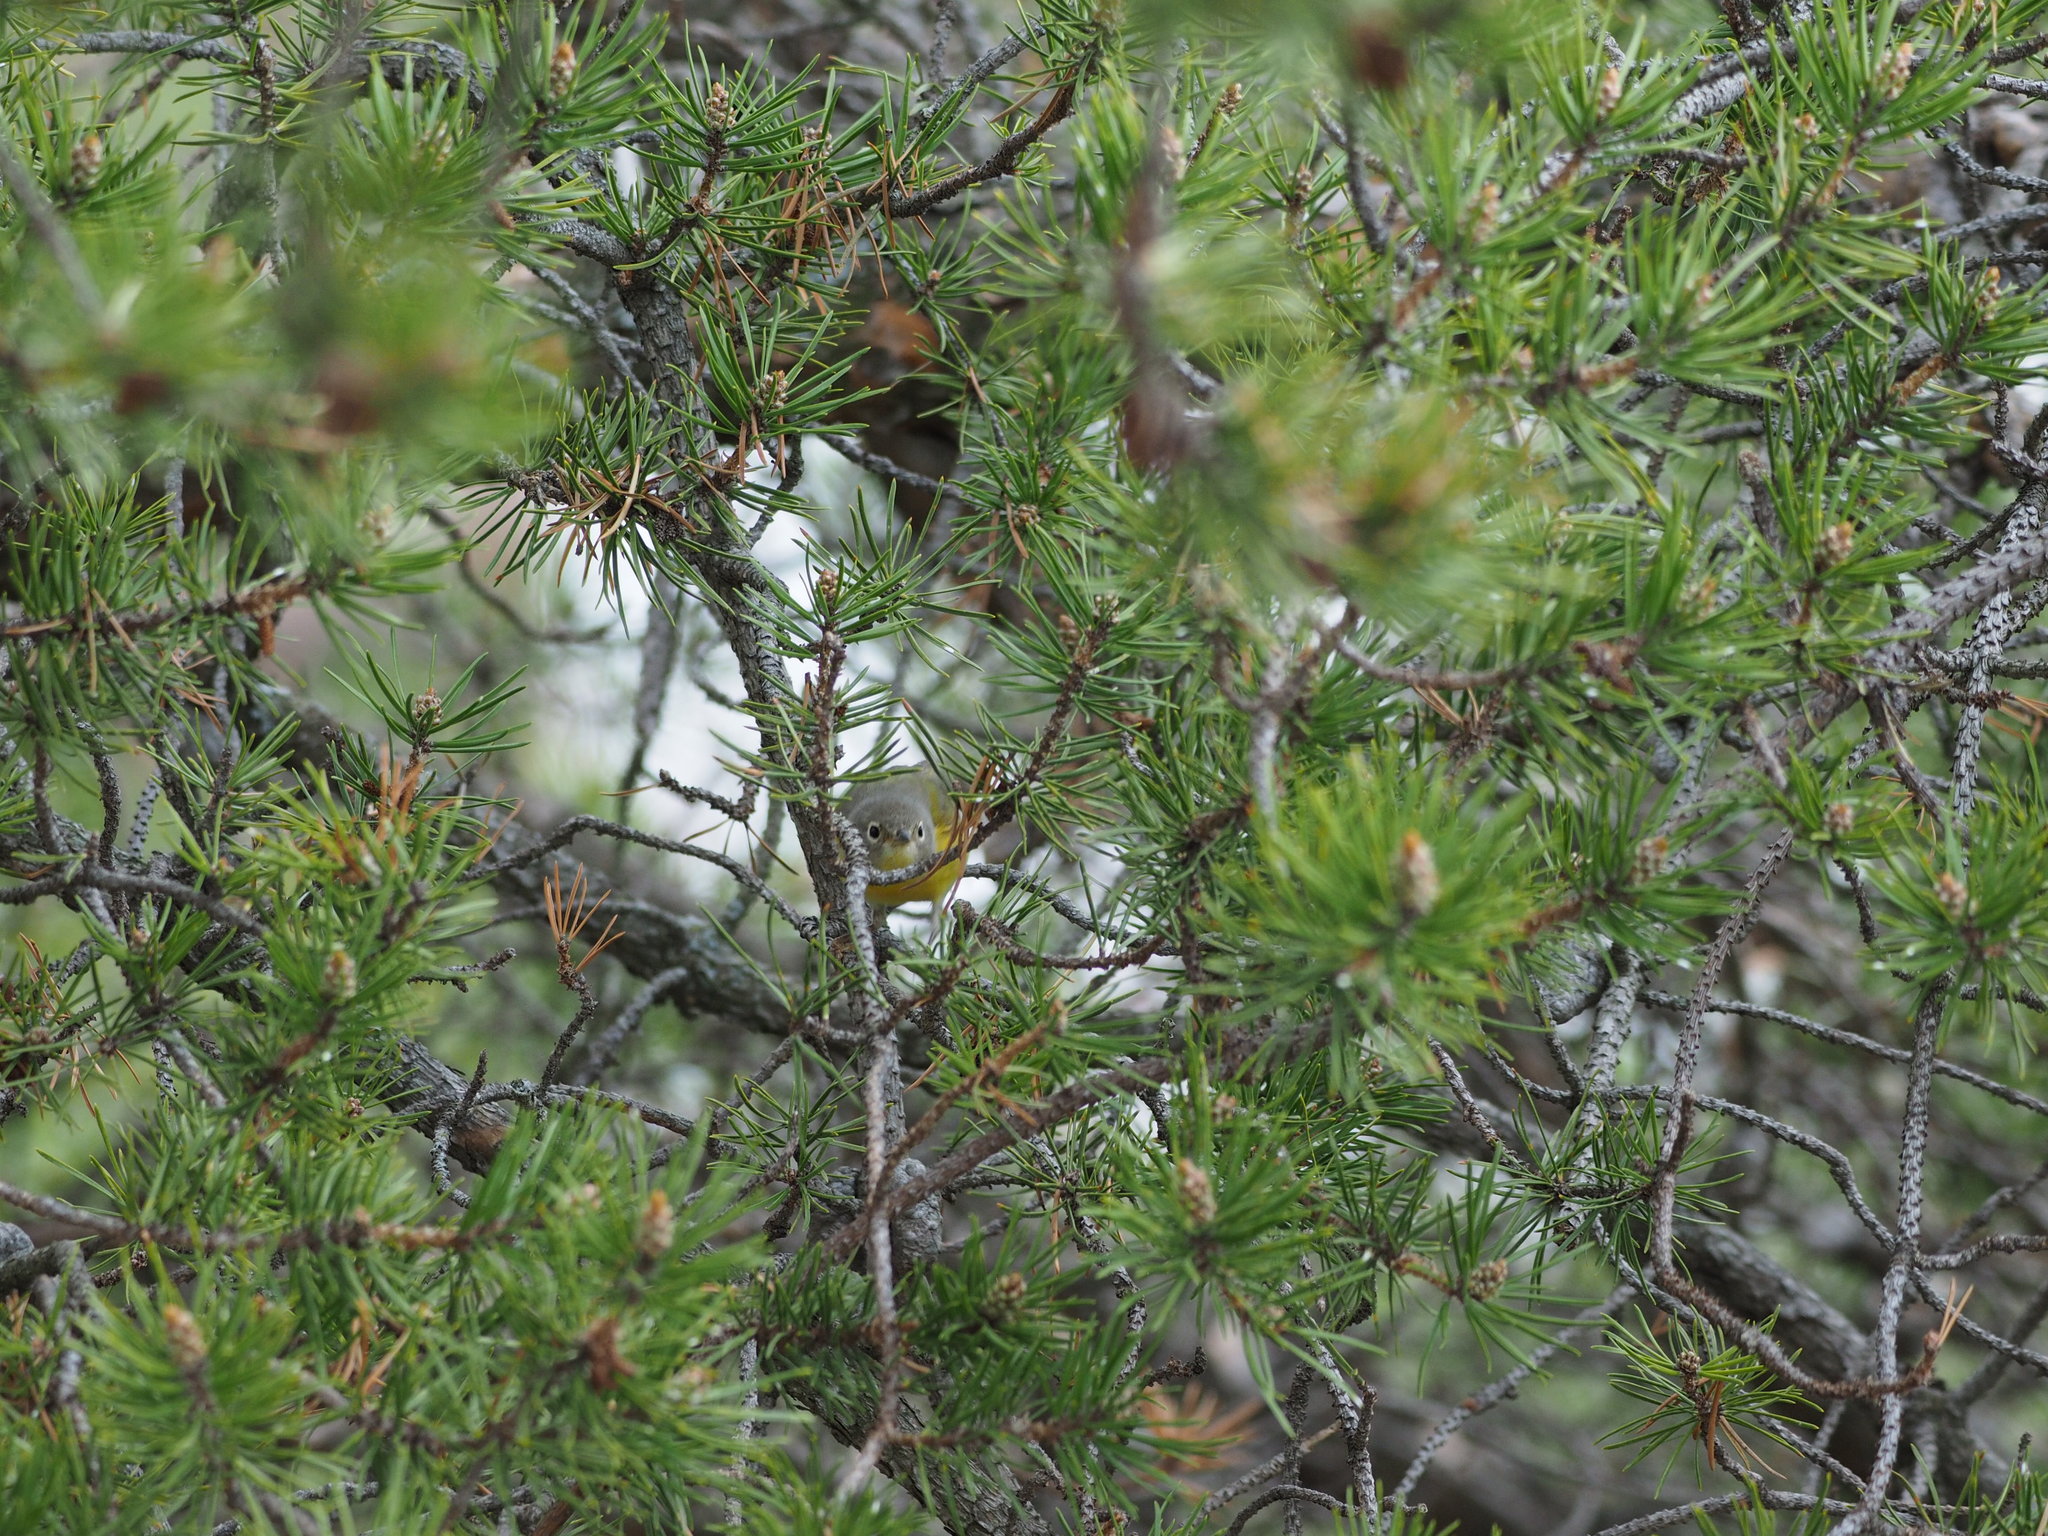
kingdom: Animalia
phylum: Chordata
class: Aves
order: Passeriformes
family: Parulidae
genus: Leiothlypis
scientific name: Leiothlypis ruficapilla
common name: Nashville warbler
